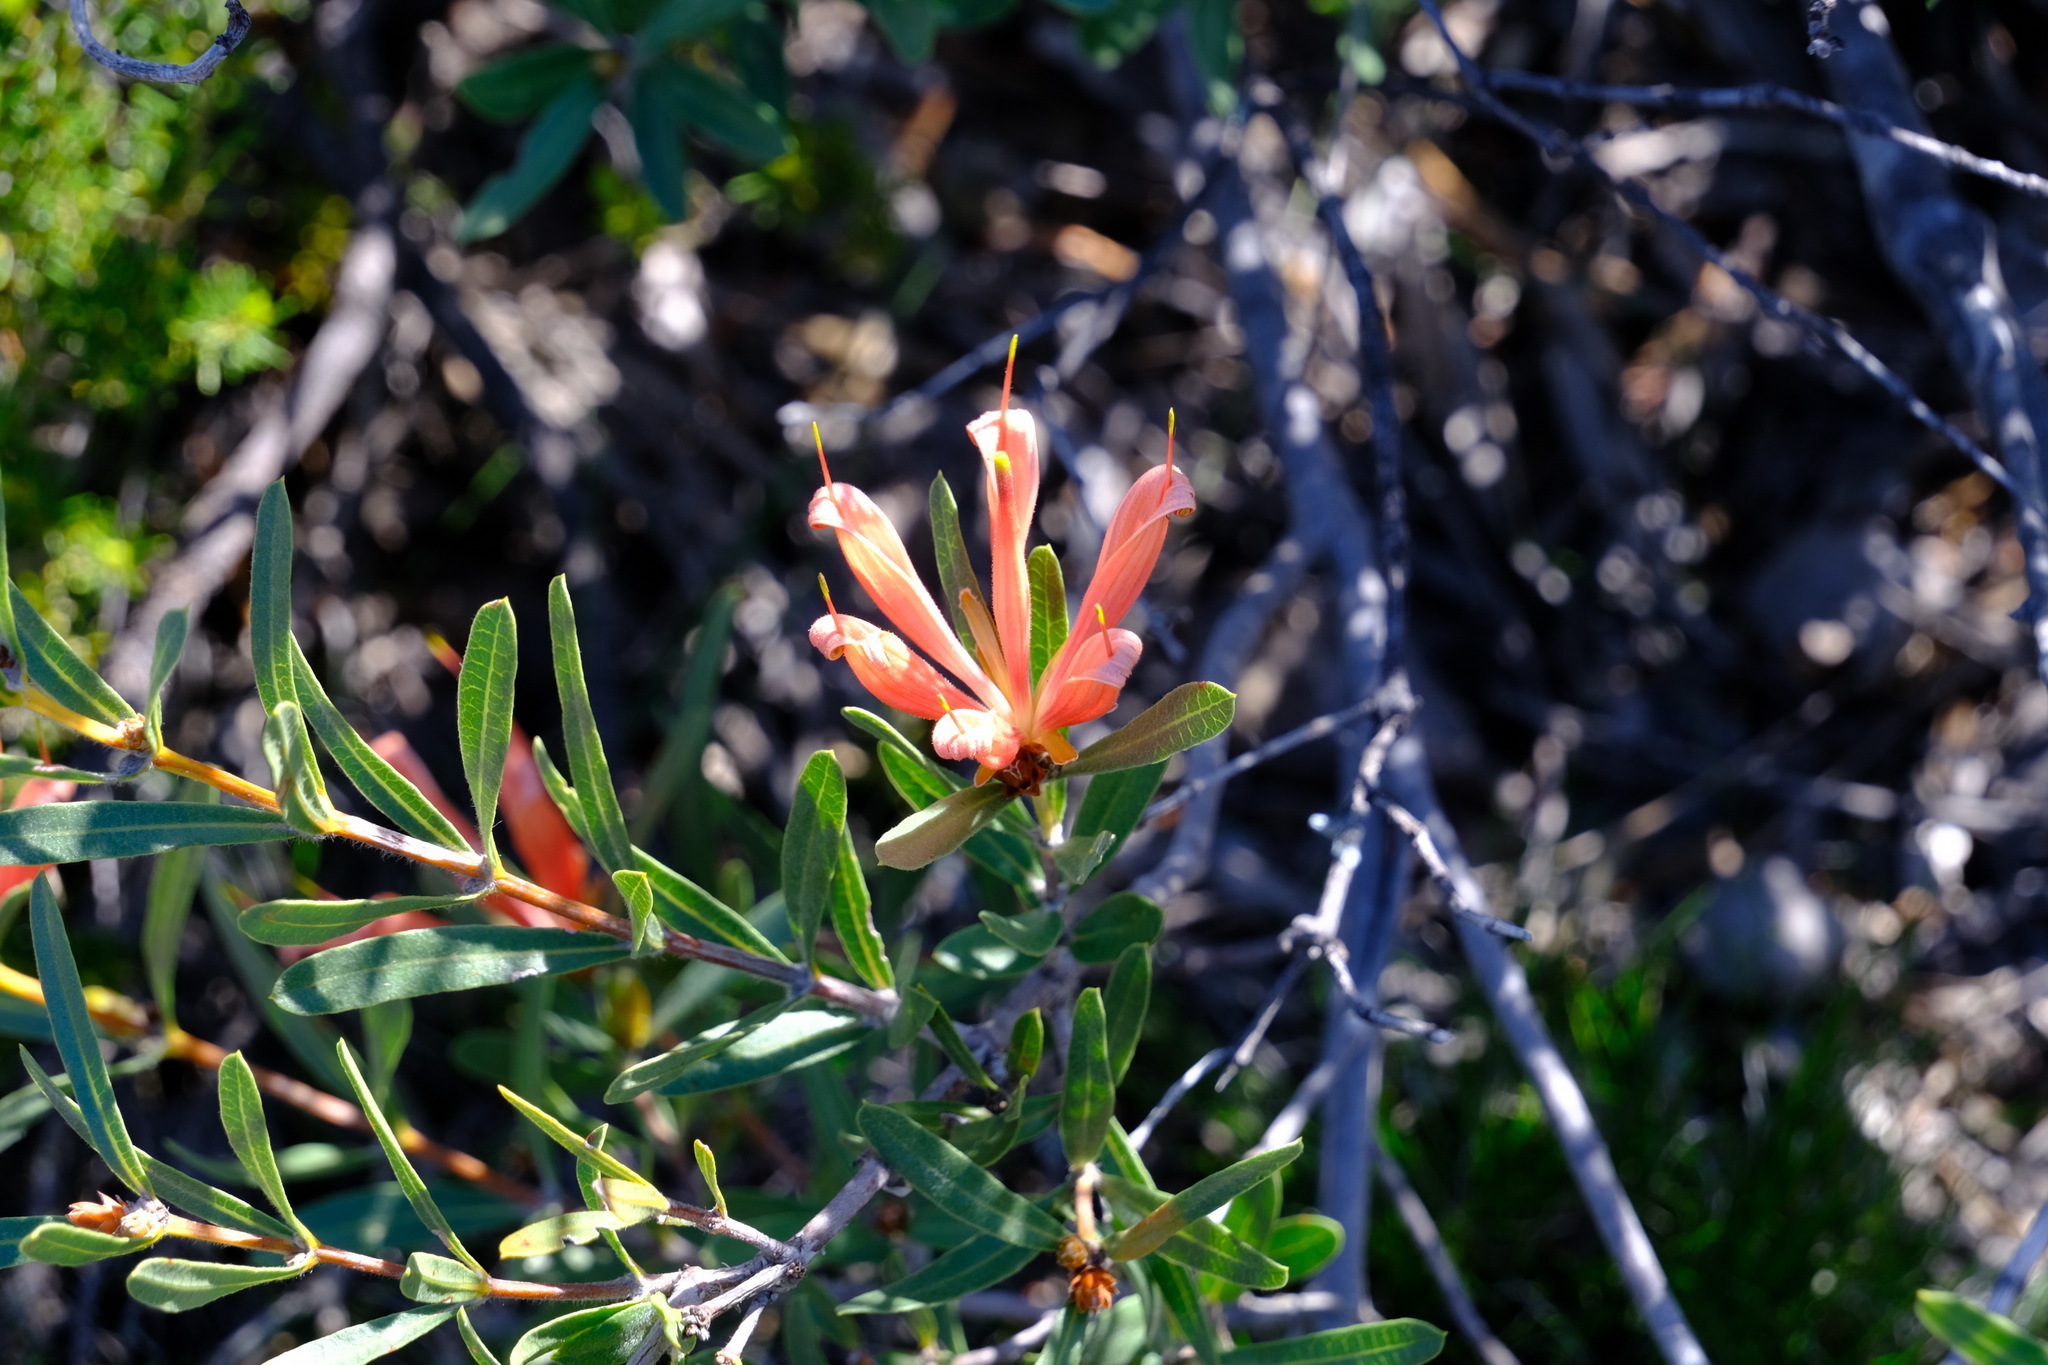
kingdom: Plantae
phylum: Tracheophyta
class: Magnoliopsida
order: Proteales
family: Proteaceae
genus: Lambertia
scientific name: Lambertia multiflora
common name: Many-flowered honeysuckle
